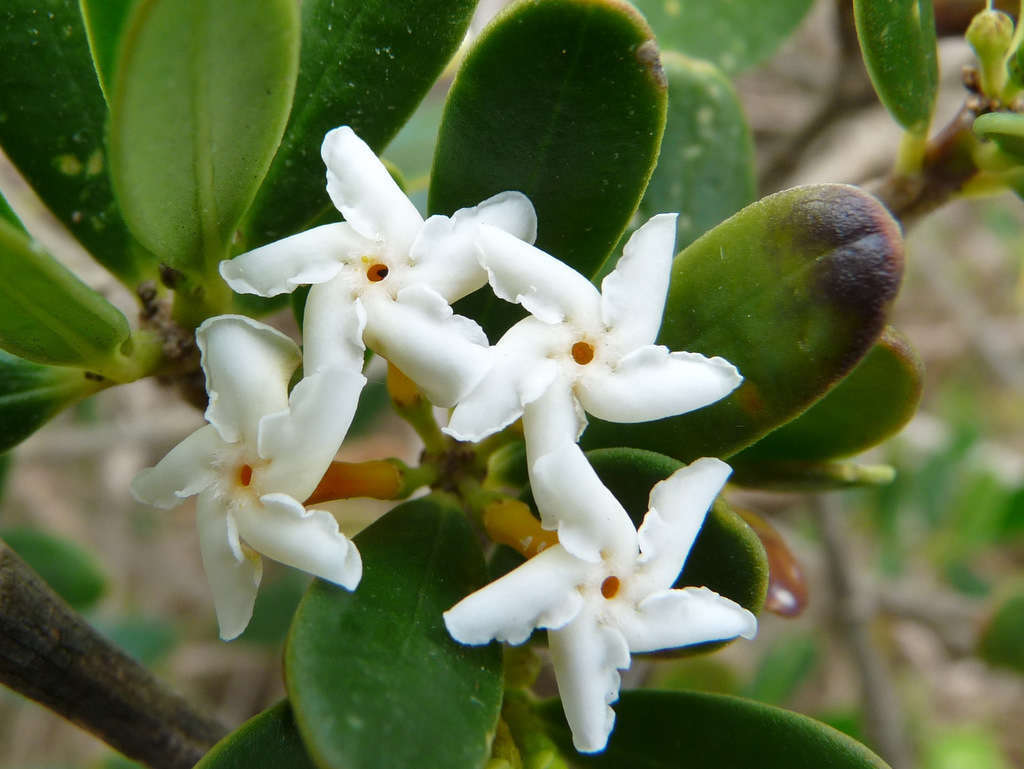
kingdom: Plantae
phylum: Tracheophyta
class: Magnoliopsida
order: Gentianales
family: Apocynaceae
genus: Alyxia
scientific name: Alyxia buxifolia
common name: Dysentery-bush
